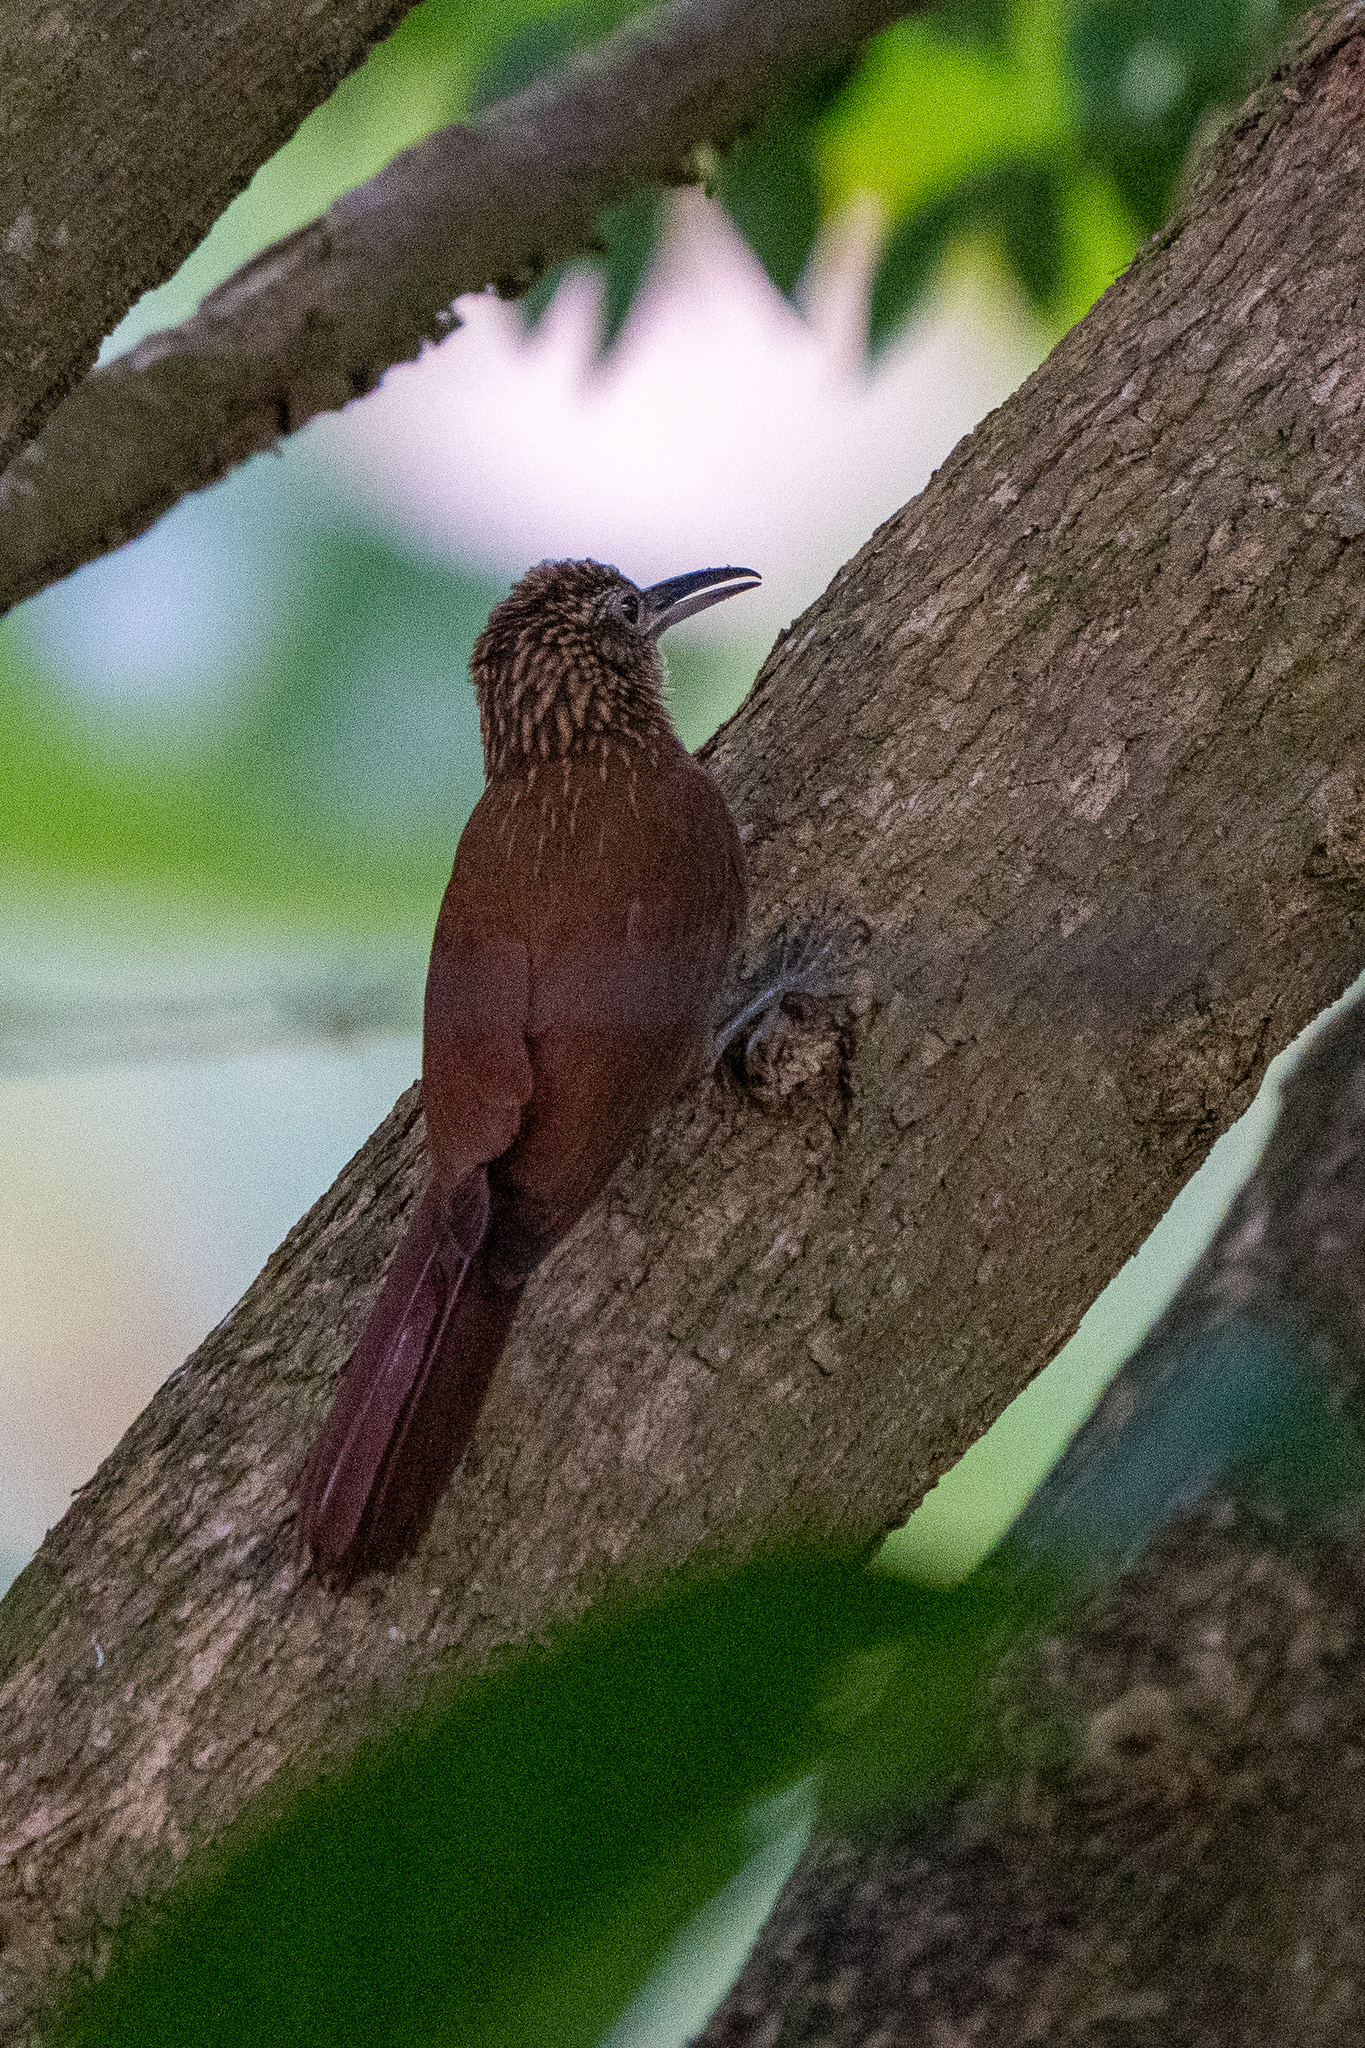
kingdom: Animalia
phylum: Chordata
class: Aves
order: Passeriformes
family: Furnariidae
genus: Xiphorhynchus
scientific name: Xiphorhynchus susurrans
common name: Cocoa woodcreeper
